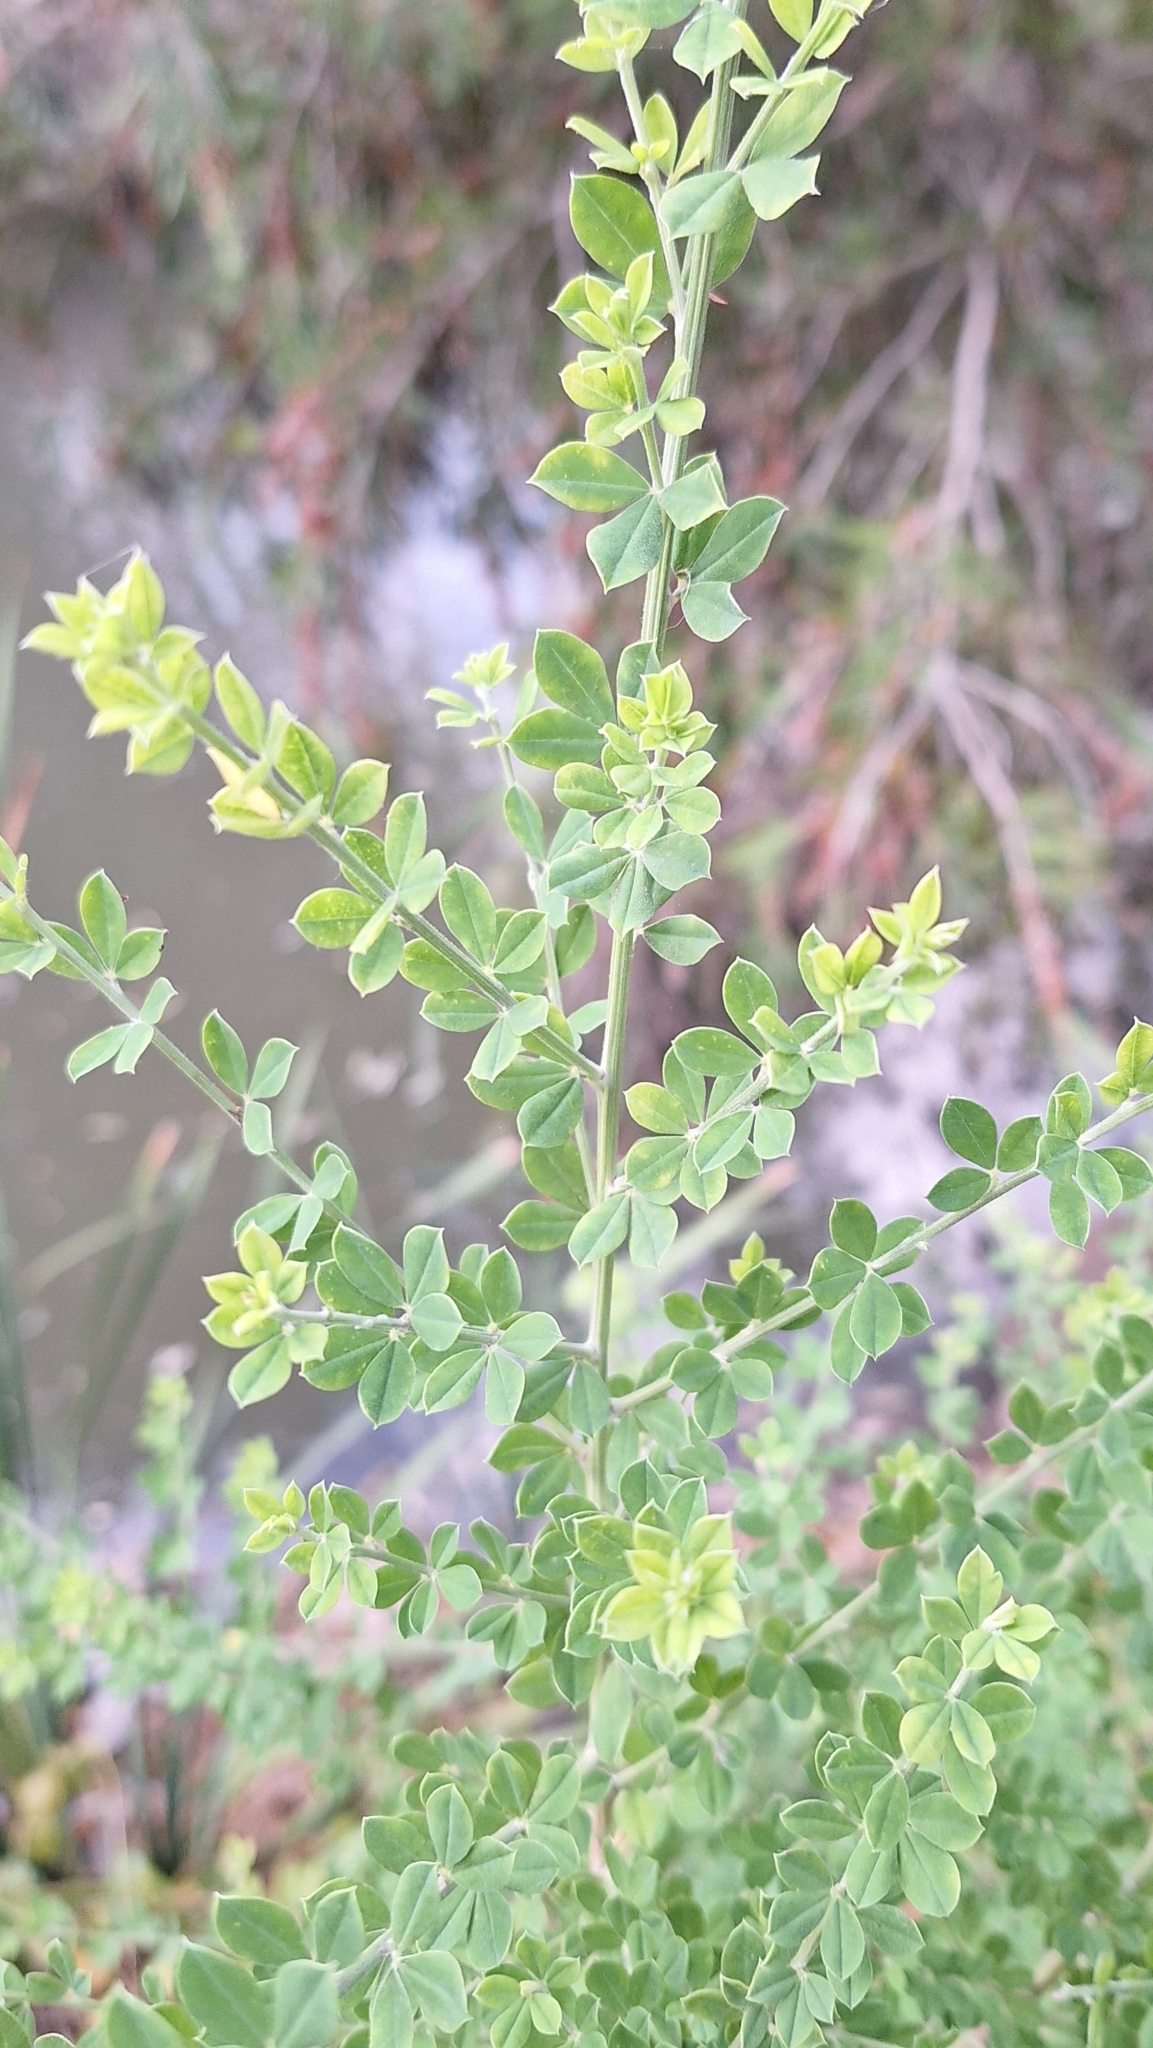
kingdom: Plantae
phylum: Tracheophyta
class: Magnoliopsida
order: Fabales
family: Fabaceae
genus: Genista
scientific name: Genista monspessulana
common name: Montpellier broom
